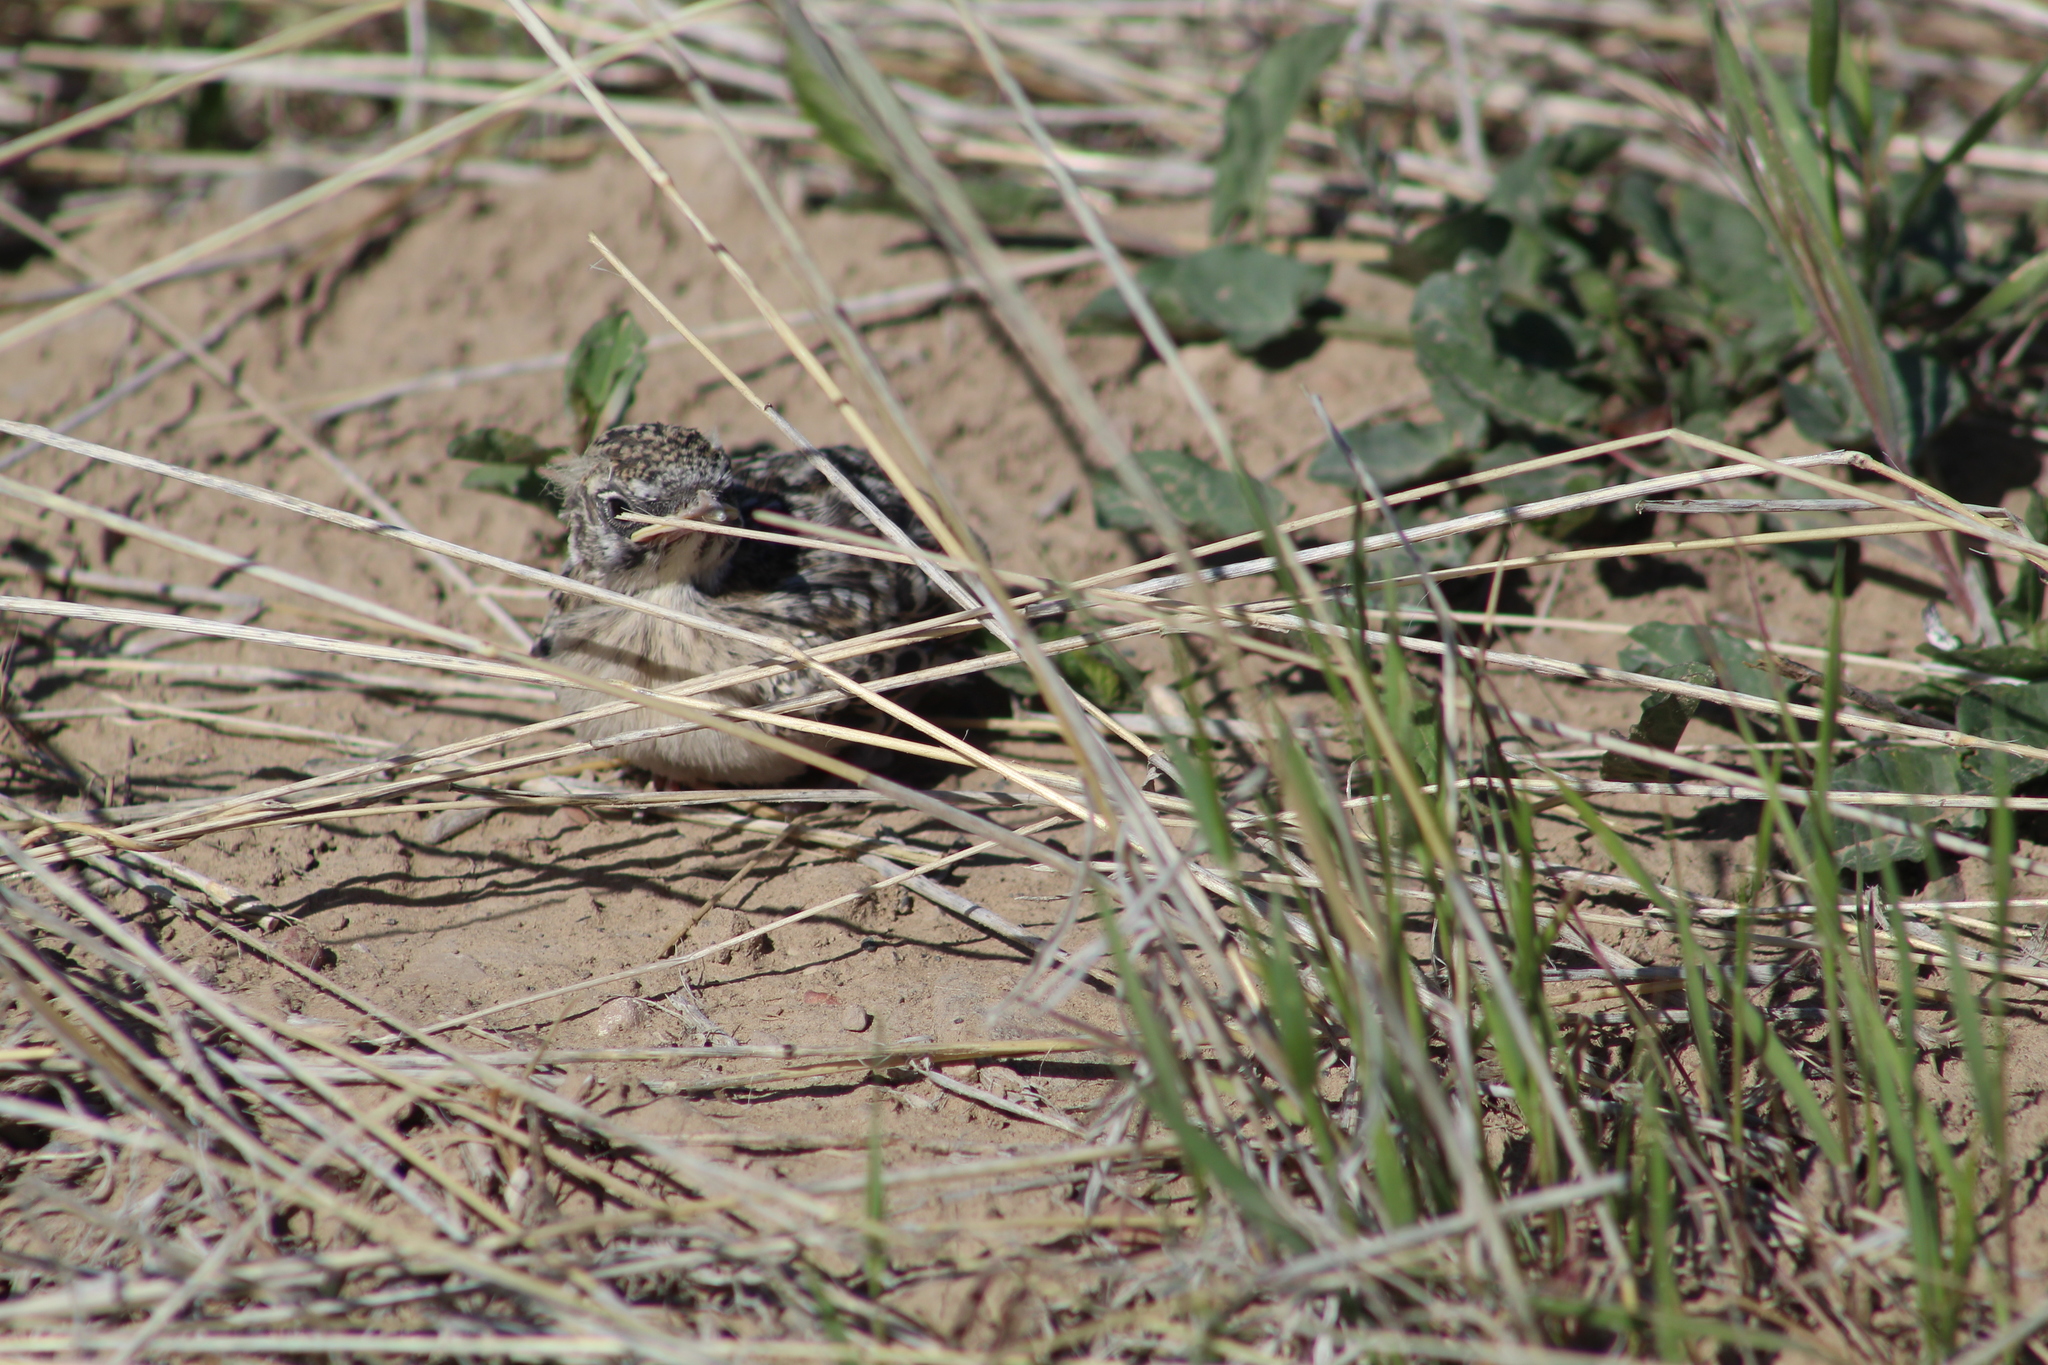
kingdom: Animalia
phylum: Chordata
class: Aves
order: Passeriformes
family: Icteridae
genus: Sturnella
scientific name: Sturnella neglecta
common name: Western meadowlark
